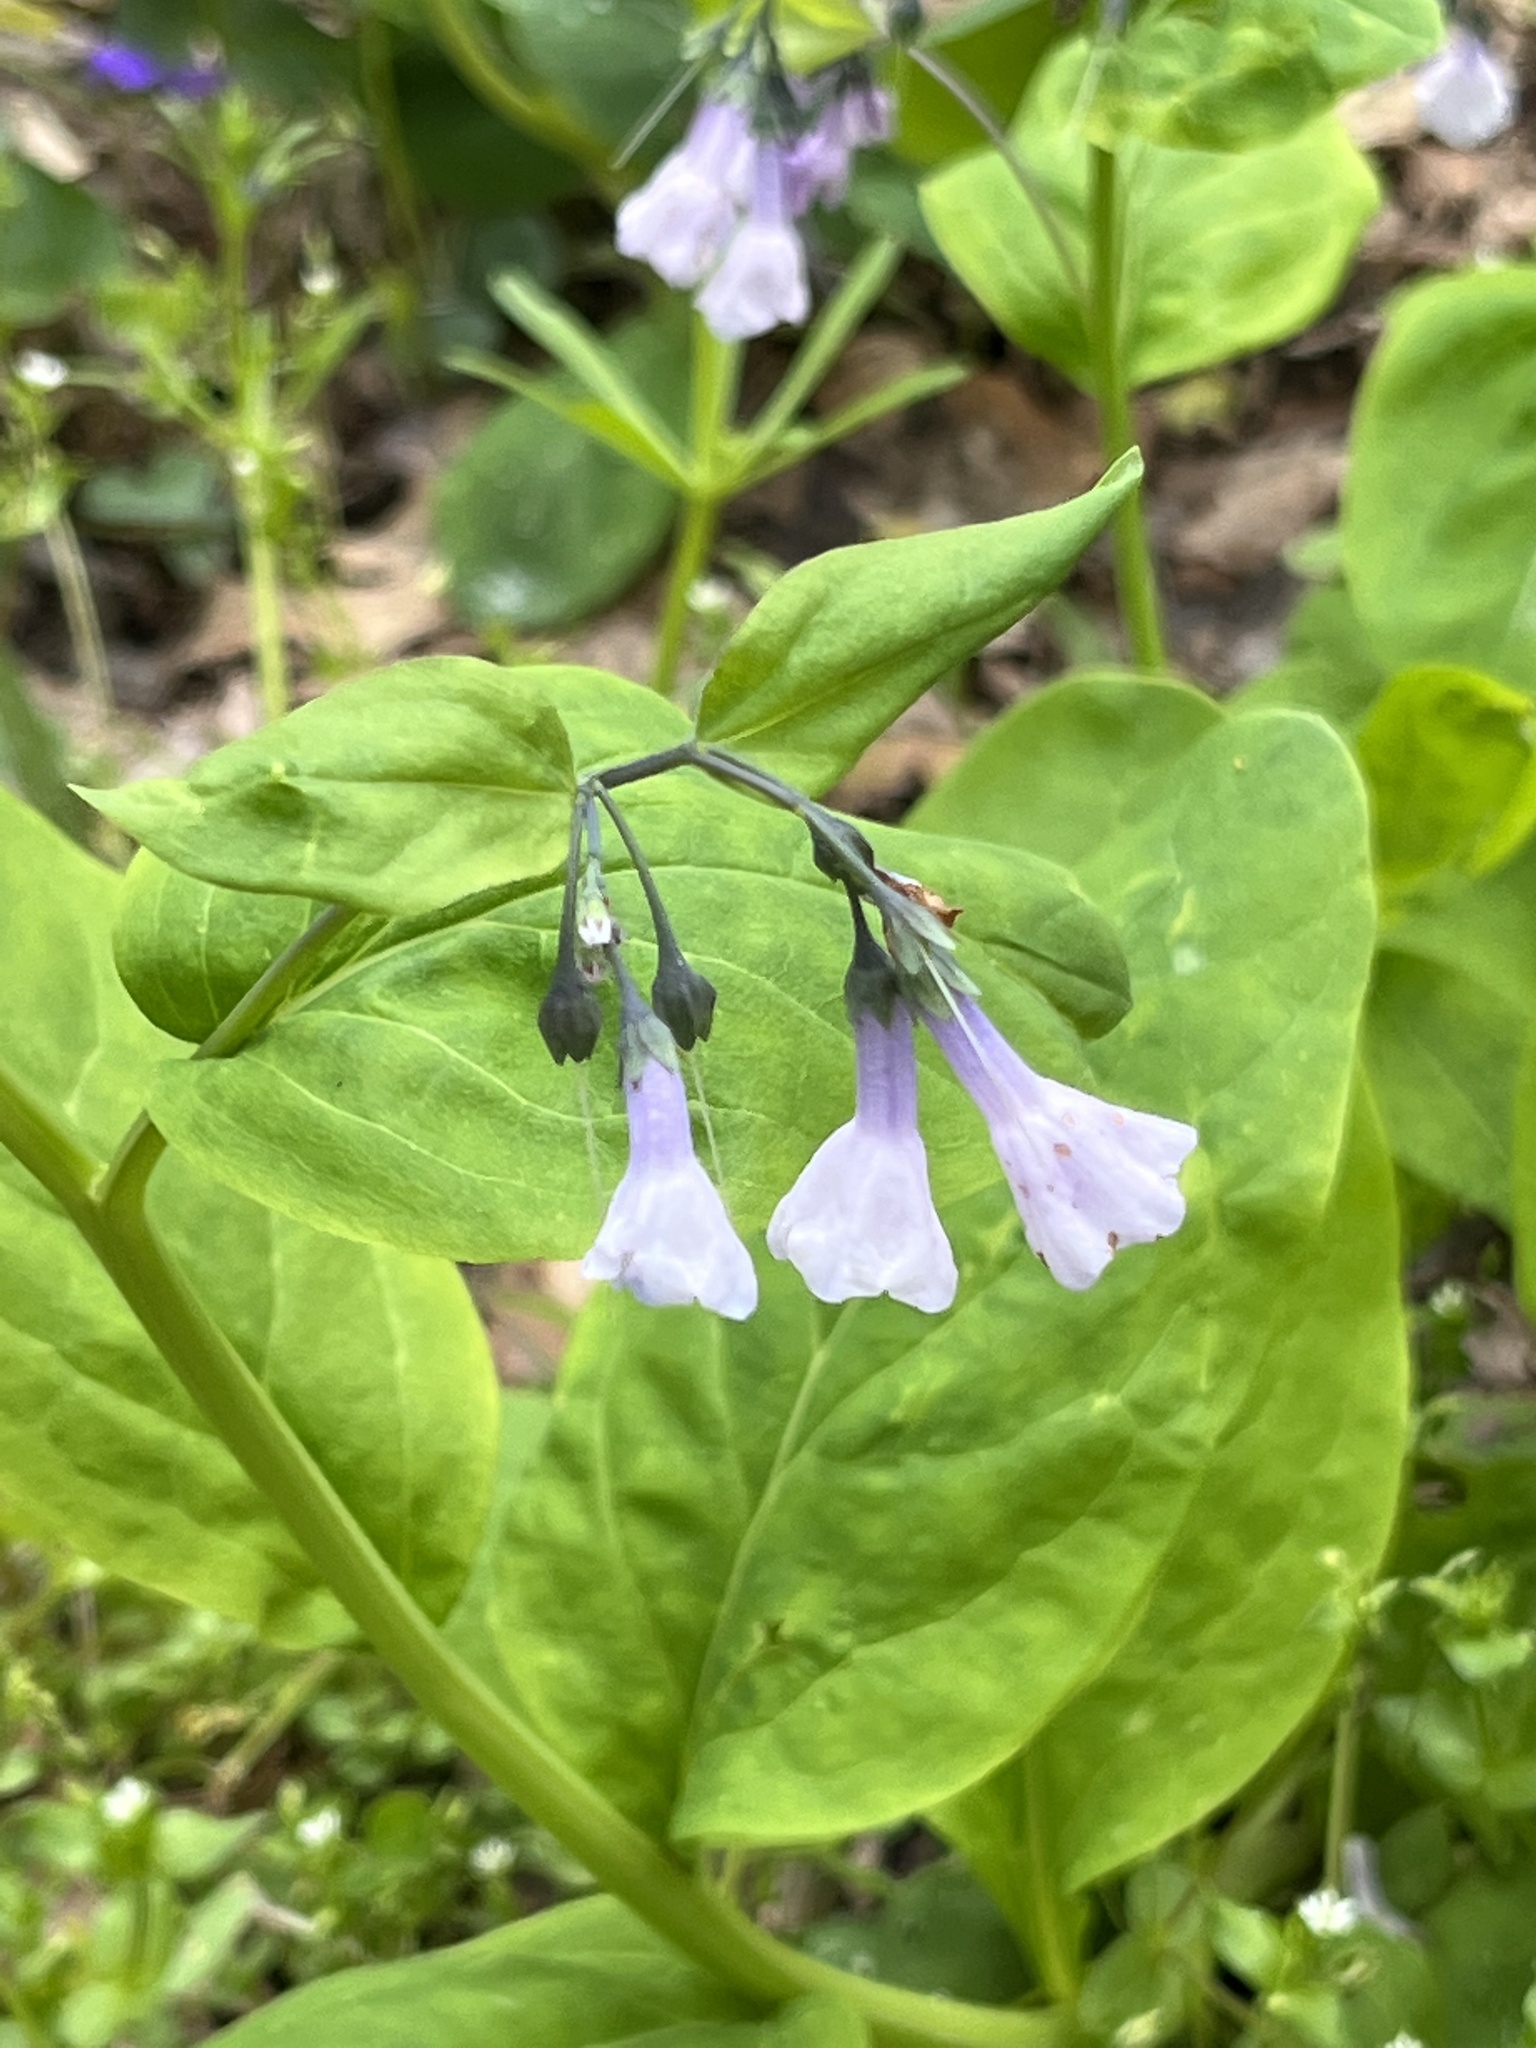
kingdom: Plantae
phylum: Tracheophyta
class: Magnoliopsida
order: Boraginales
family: Boraginaceae
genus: Mertensia
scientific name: Mertensia virginica
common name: Virginia bluebells
